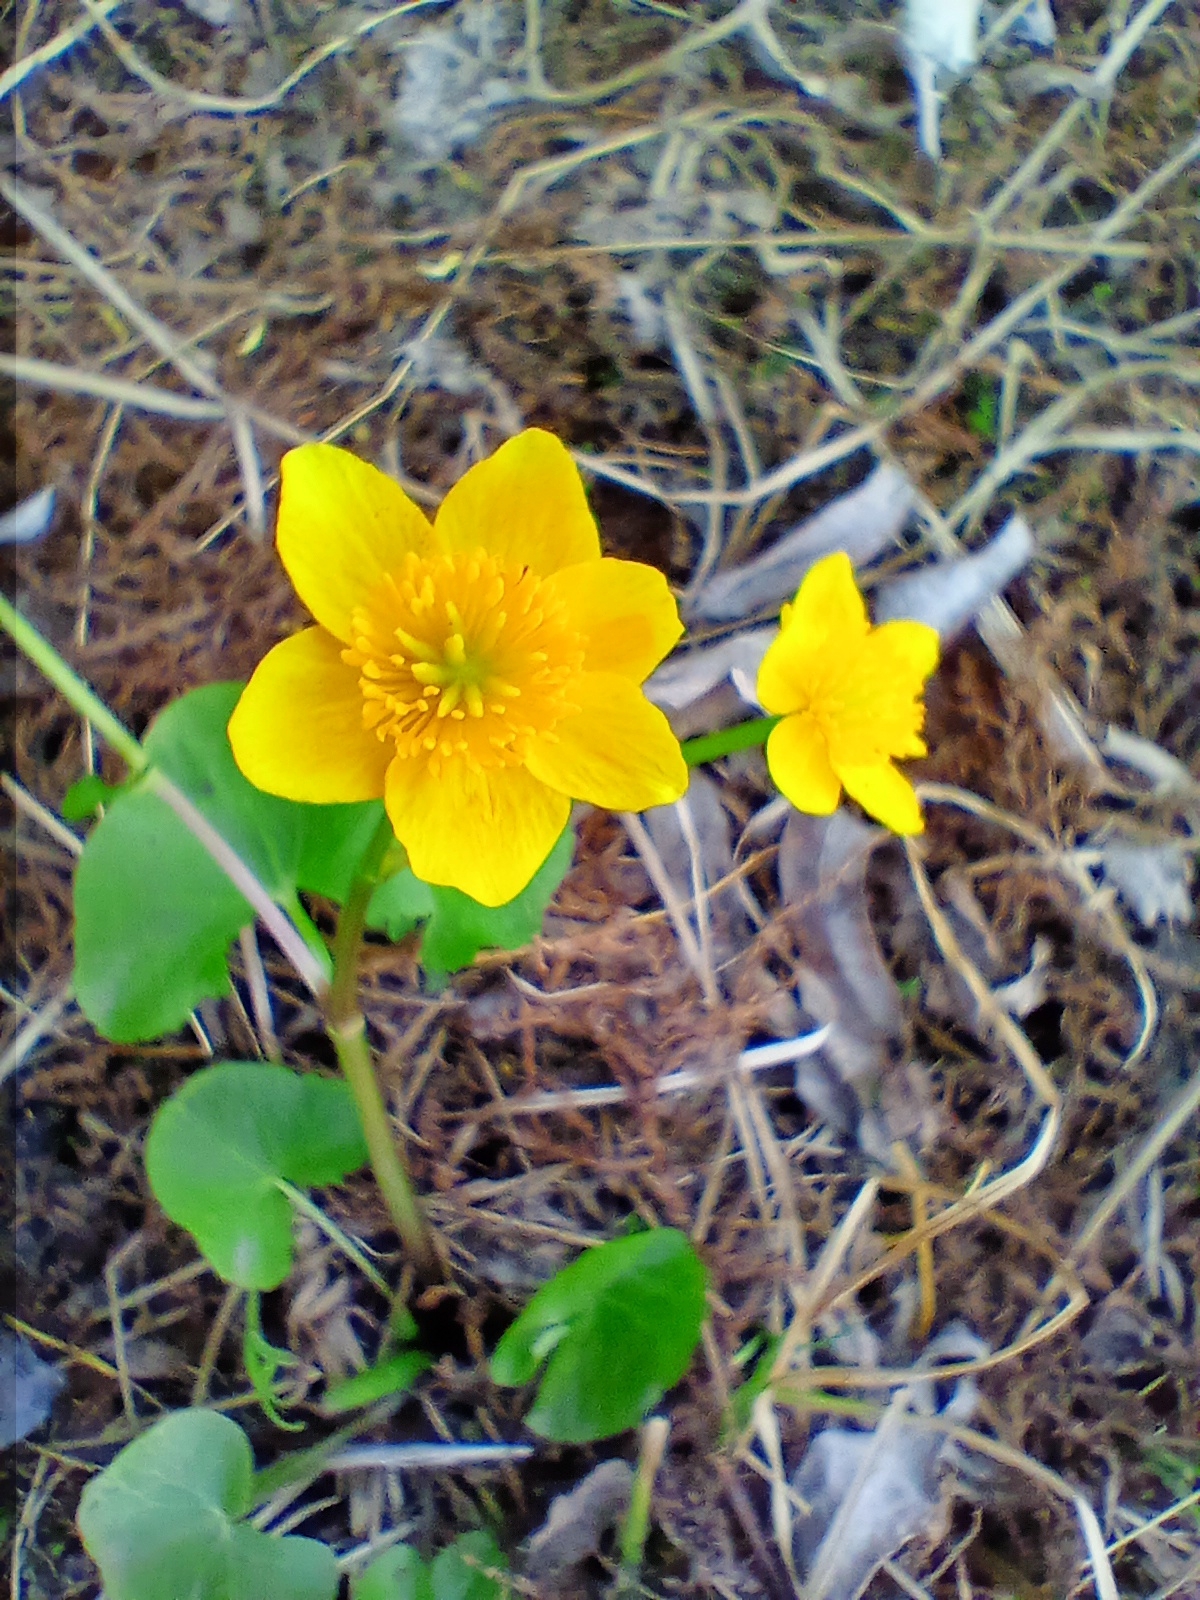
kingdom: Plantae
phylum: Tracheophyta
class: Magnoliopsida
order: Ranunculales
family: Ranunculaceae
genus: Caltha
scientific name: Caltha palustris
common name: Marsh marigold
